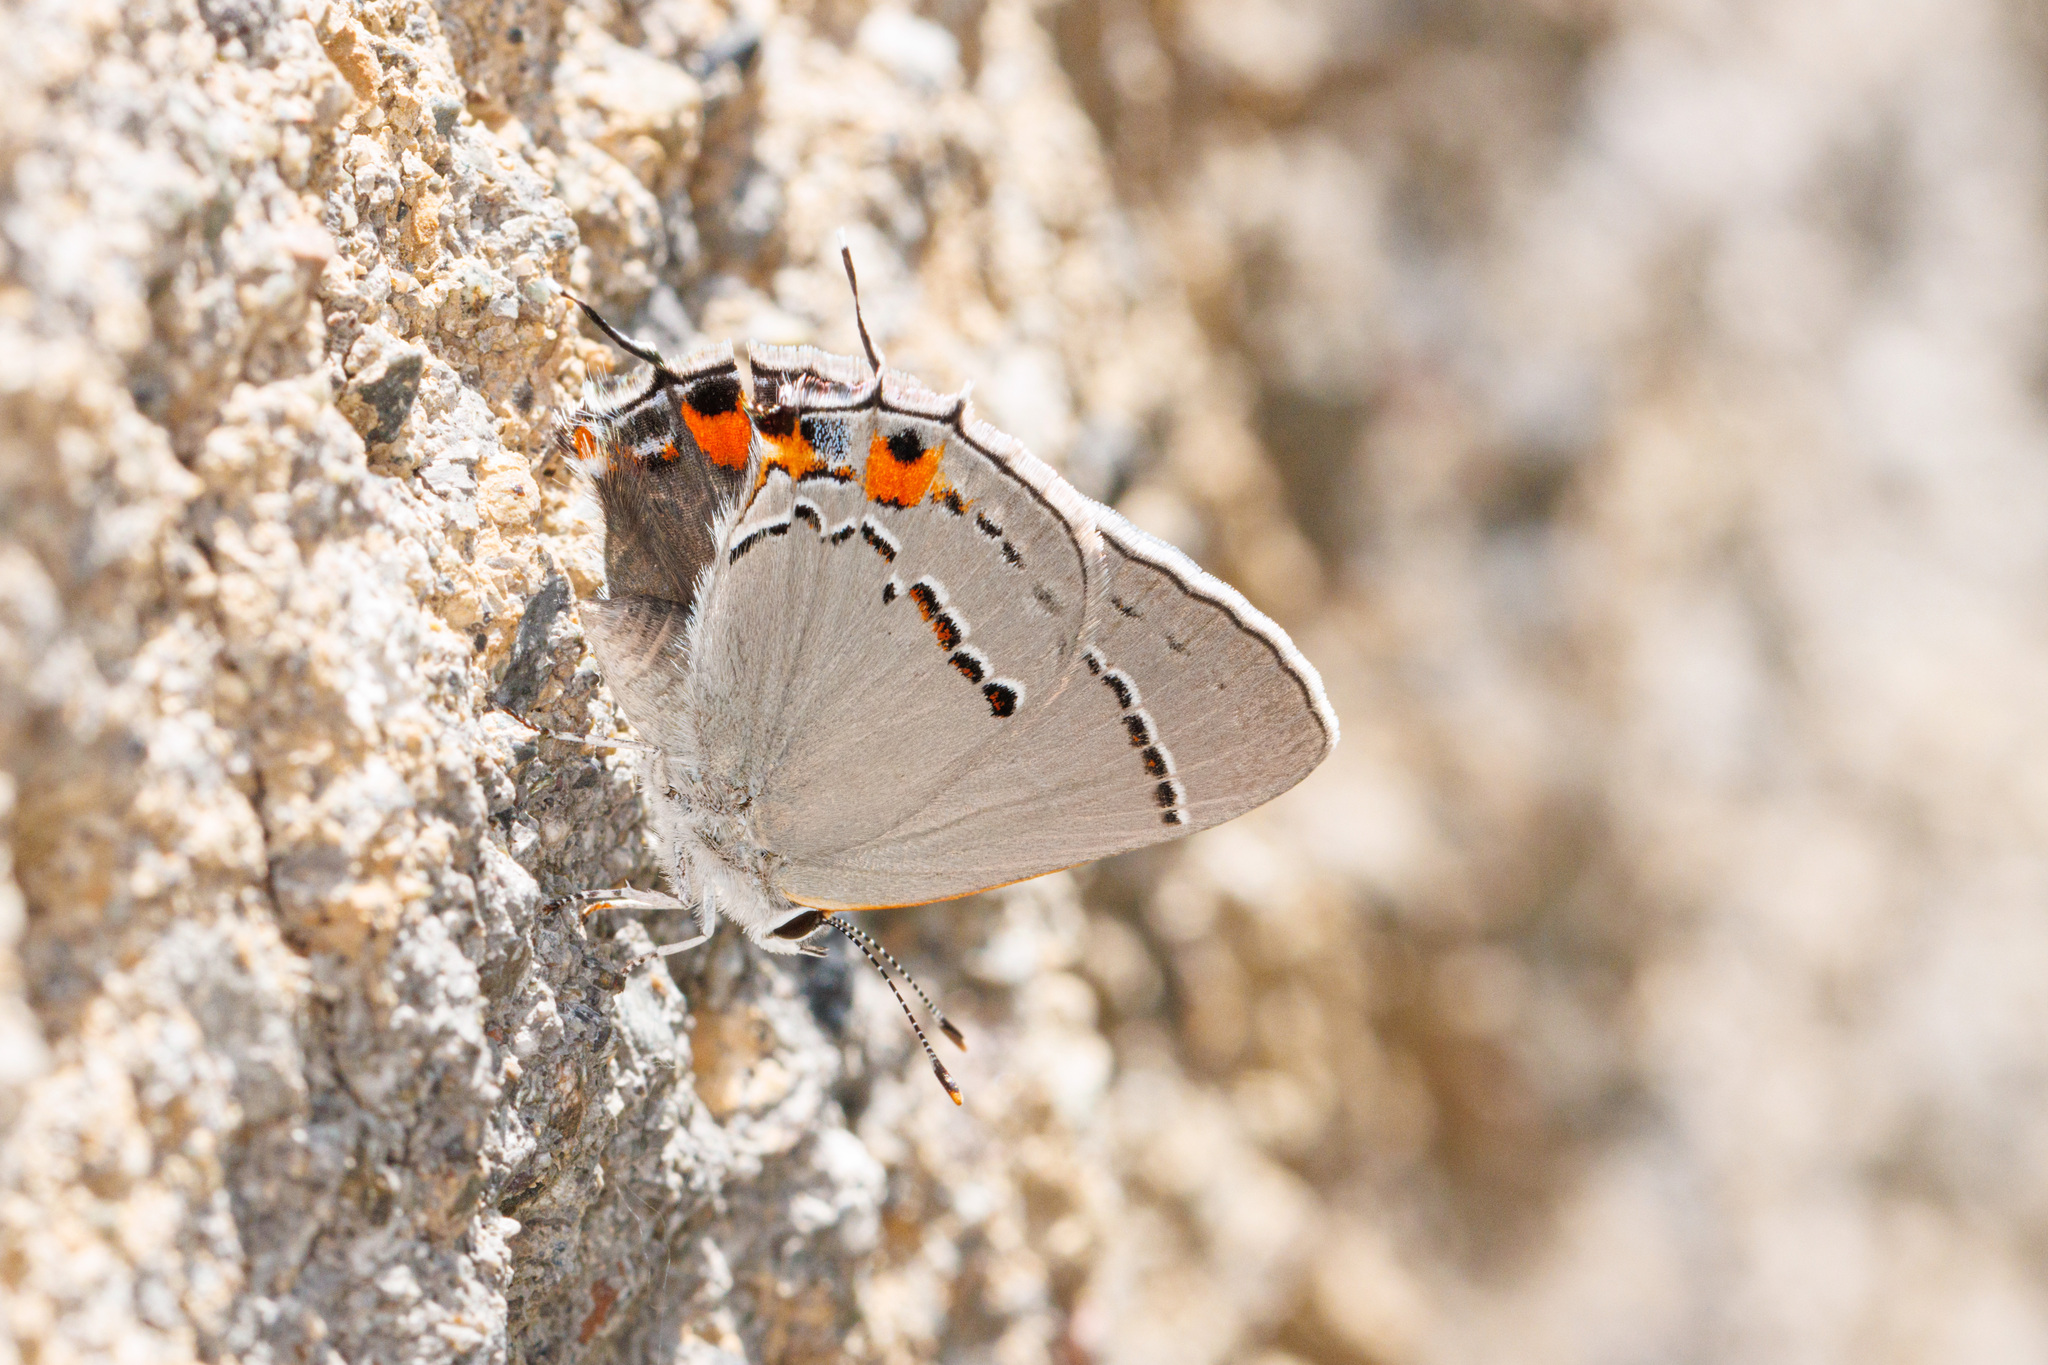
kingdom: Animalia
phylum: Arthropoda
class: Insecta
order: Lepidoptera
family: Lycaenidae
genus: Strymon
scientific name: Strymon melinus
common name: Gray hairstreak
